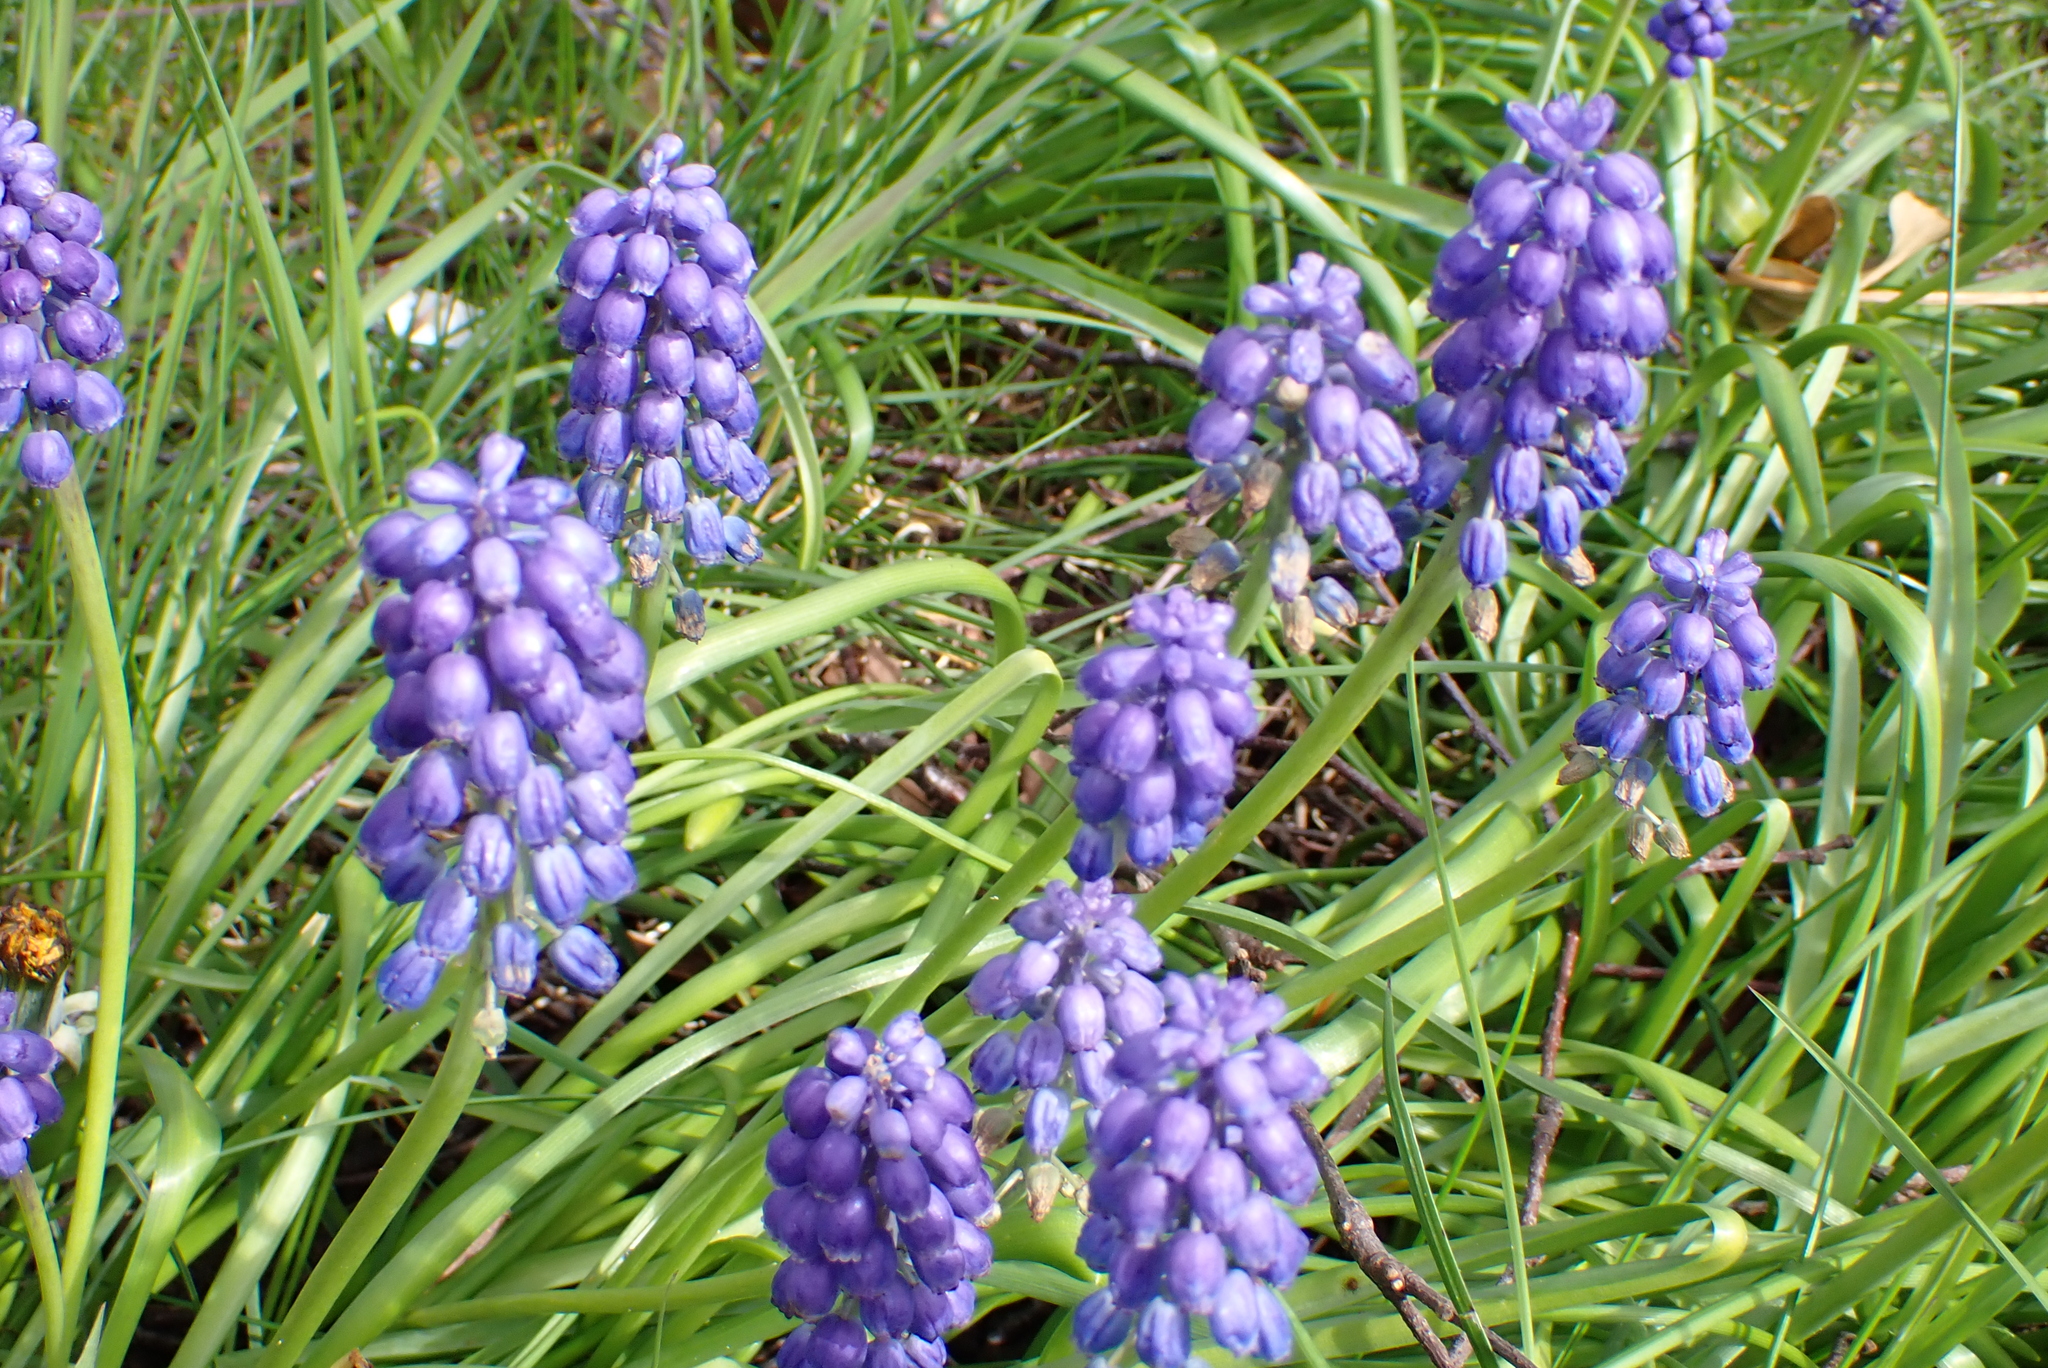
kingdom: Plantae
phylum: Tracheophyta
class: Liliopsida
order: Asparagales
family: Asparagaceae
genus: Muscari
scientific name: Muscari armeniacum
